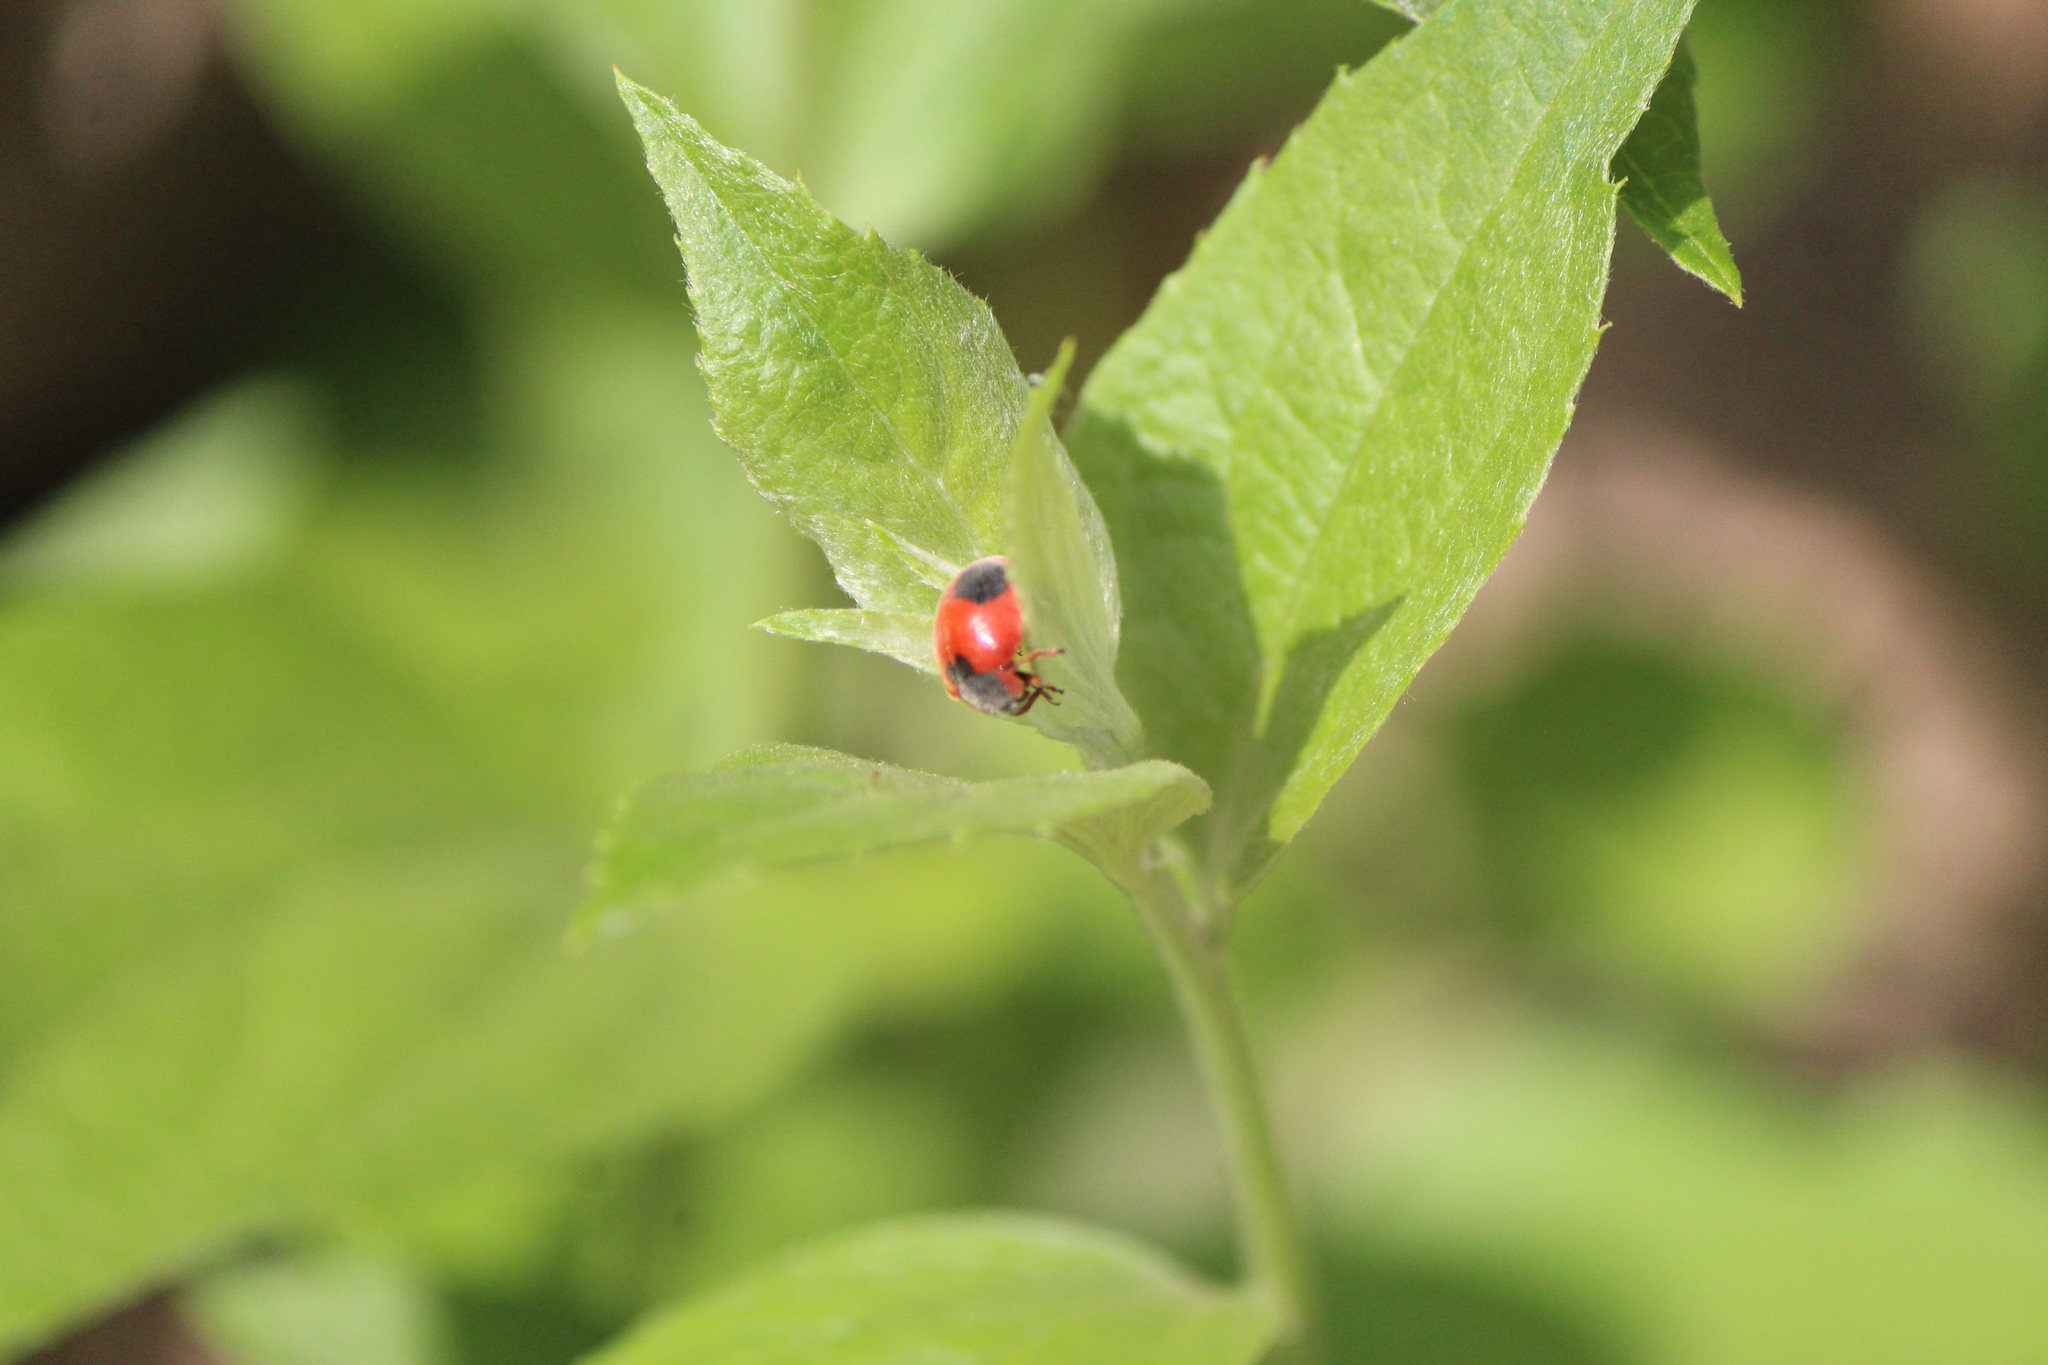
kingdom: Animalia
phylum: Arthropoda
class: Insecta
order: Coleoptera
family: Coccinellidae
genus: Novius
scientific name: Novius
